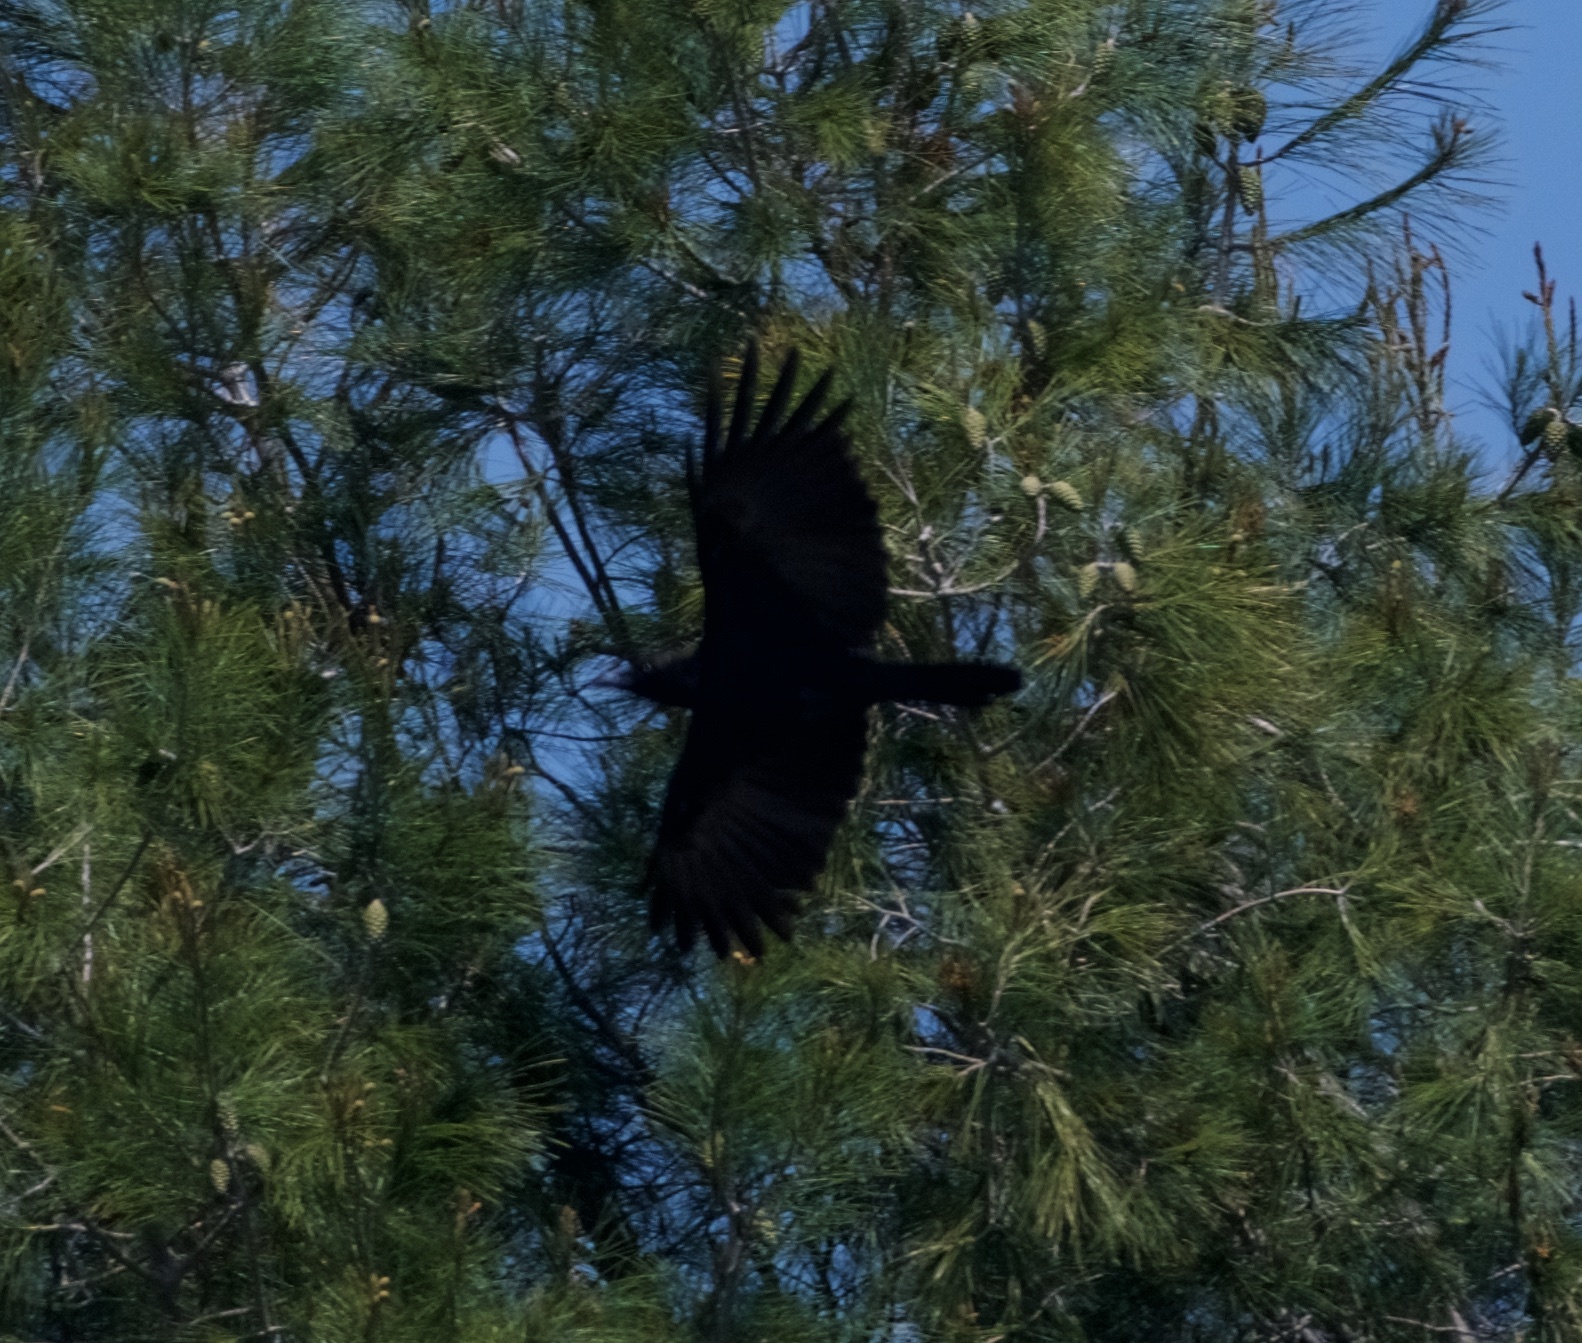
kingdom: Animalia
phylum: Chordata
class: Aves
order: Passeriformes
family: Corvidae
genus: Corvus
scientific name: Corvus brachyrhynchos
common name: American crow
